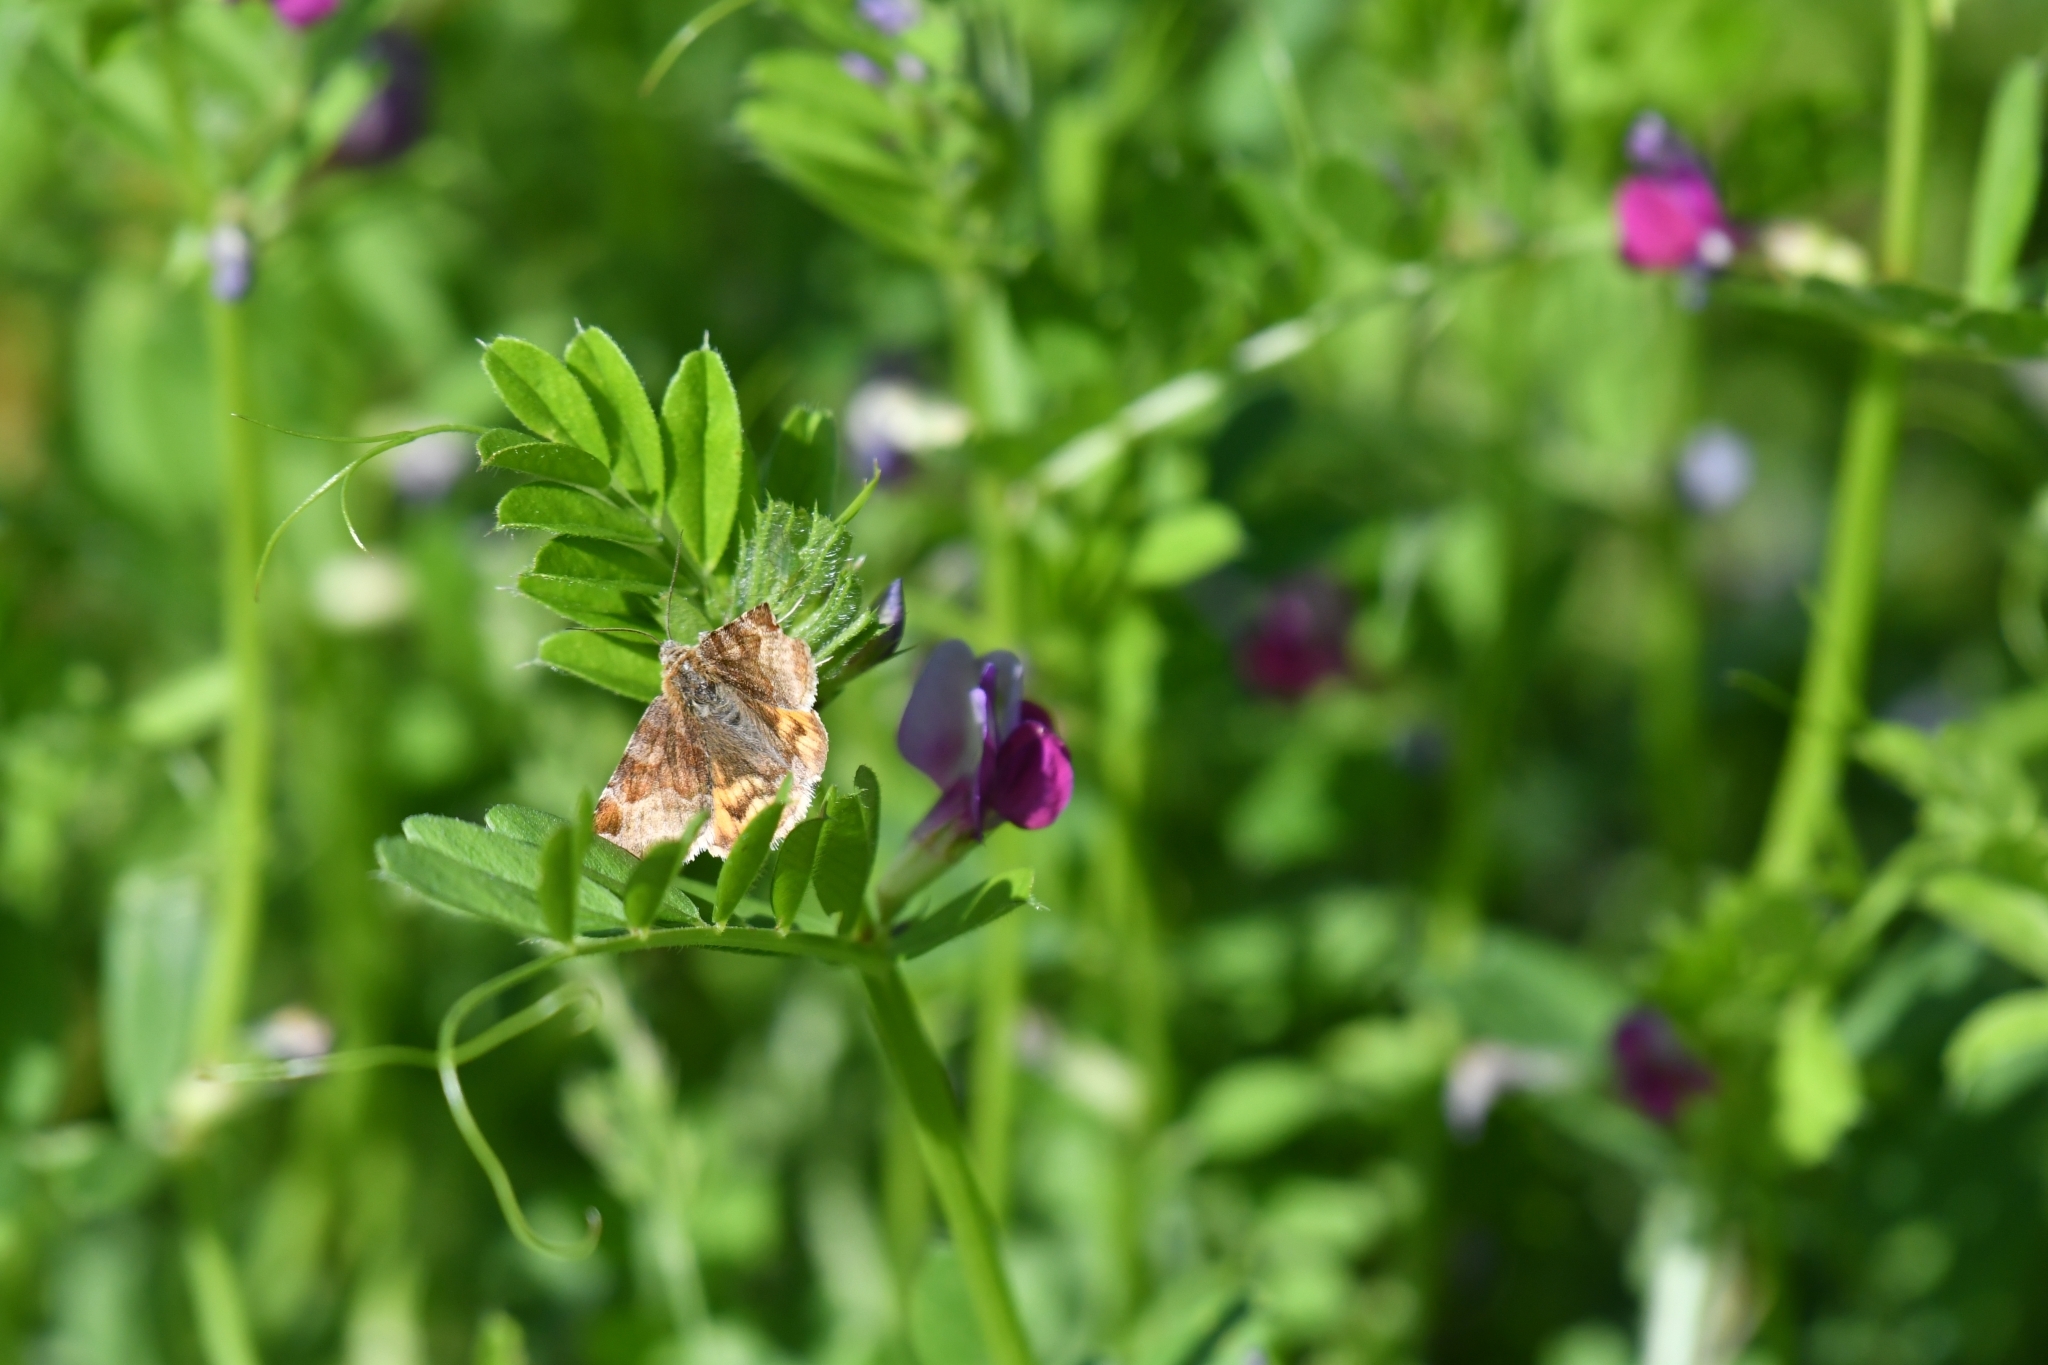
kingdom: Animalia
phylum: Arthropoda
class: Insecta
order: Lepidoptera
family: Erebidae
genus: Euclidia
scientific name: Euclidia glyphica
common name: Burnet companion
